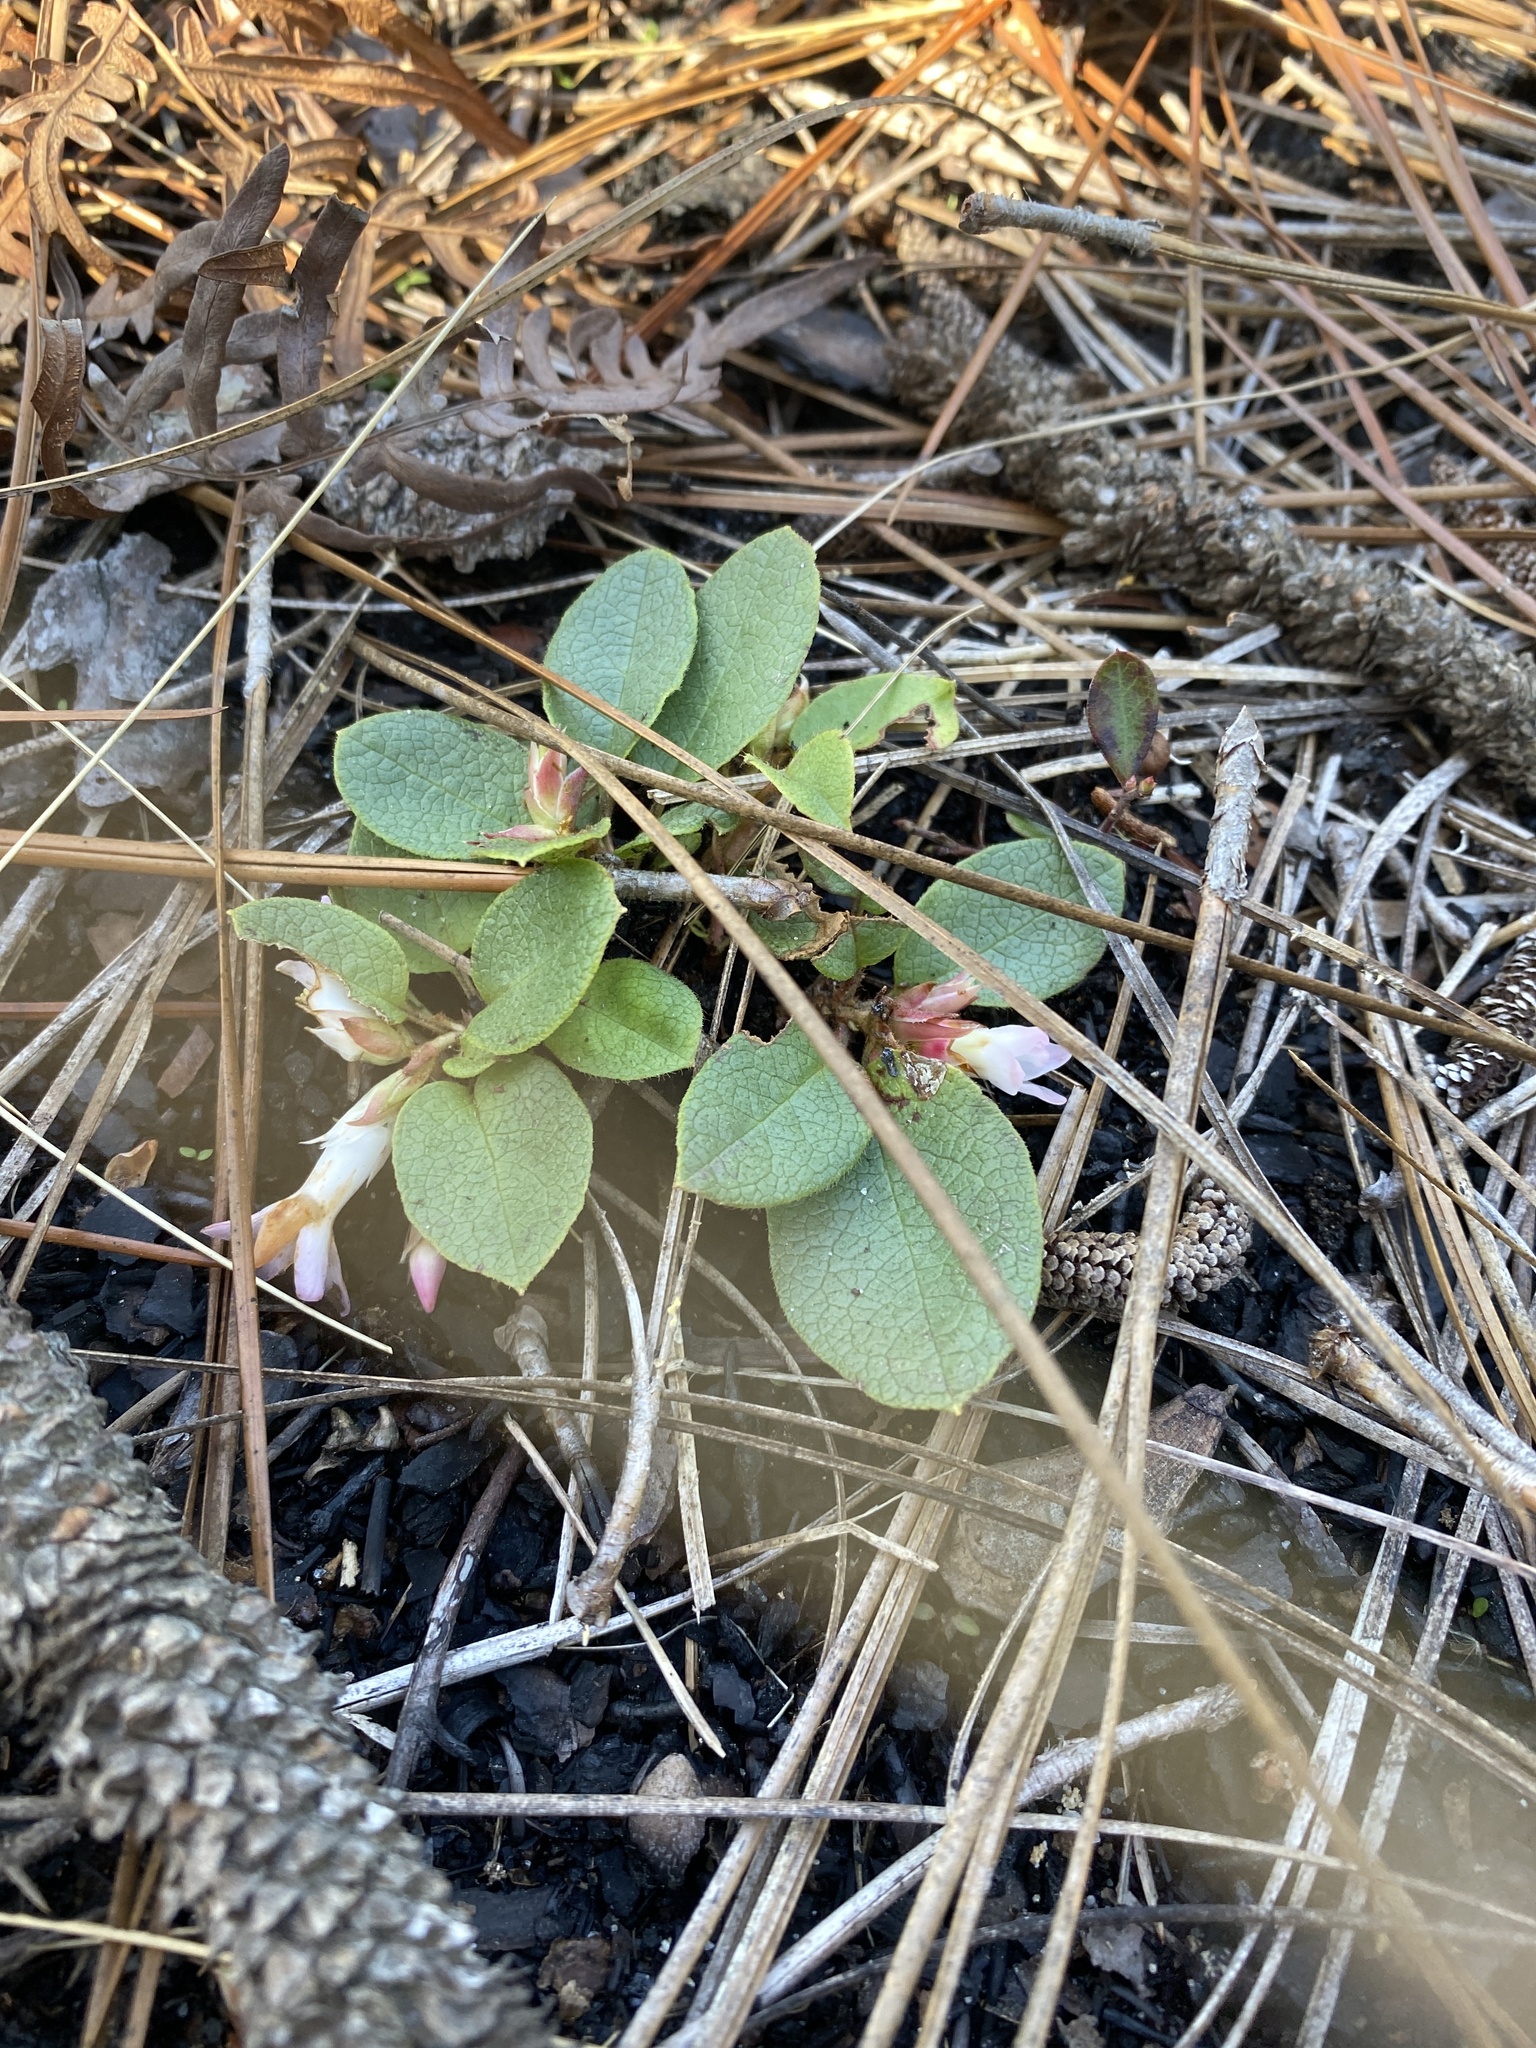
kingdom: Plantae
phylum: Tracheophyta
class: Magnoliopsida
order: Ericales
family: Ericaceae
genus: Epigaea
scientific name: Epigaea repens
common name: Gravelroot
